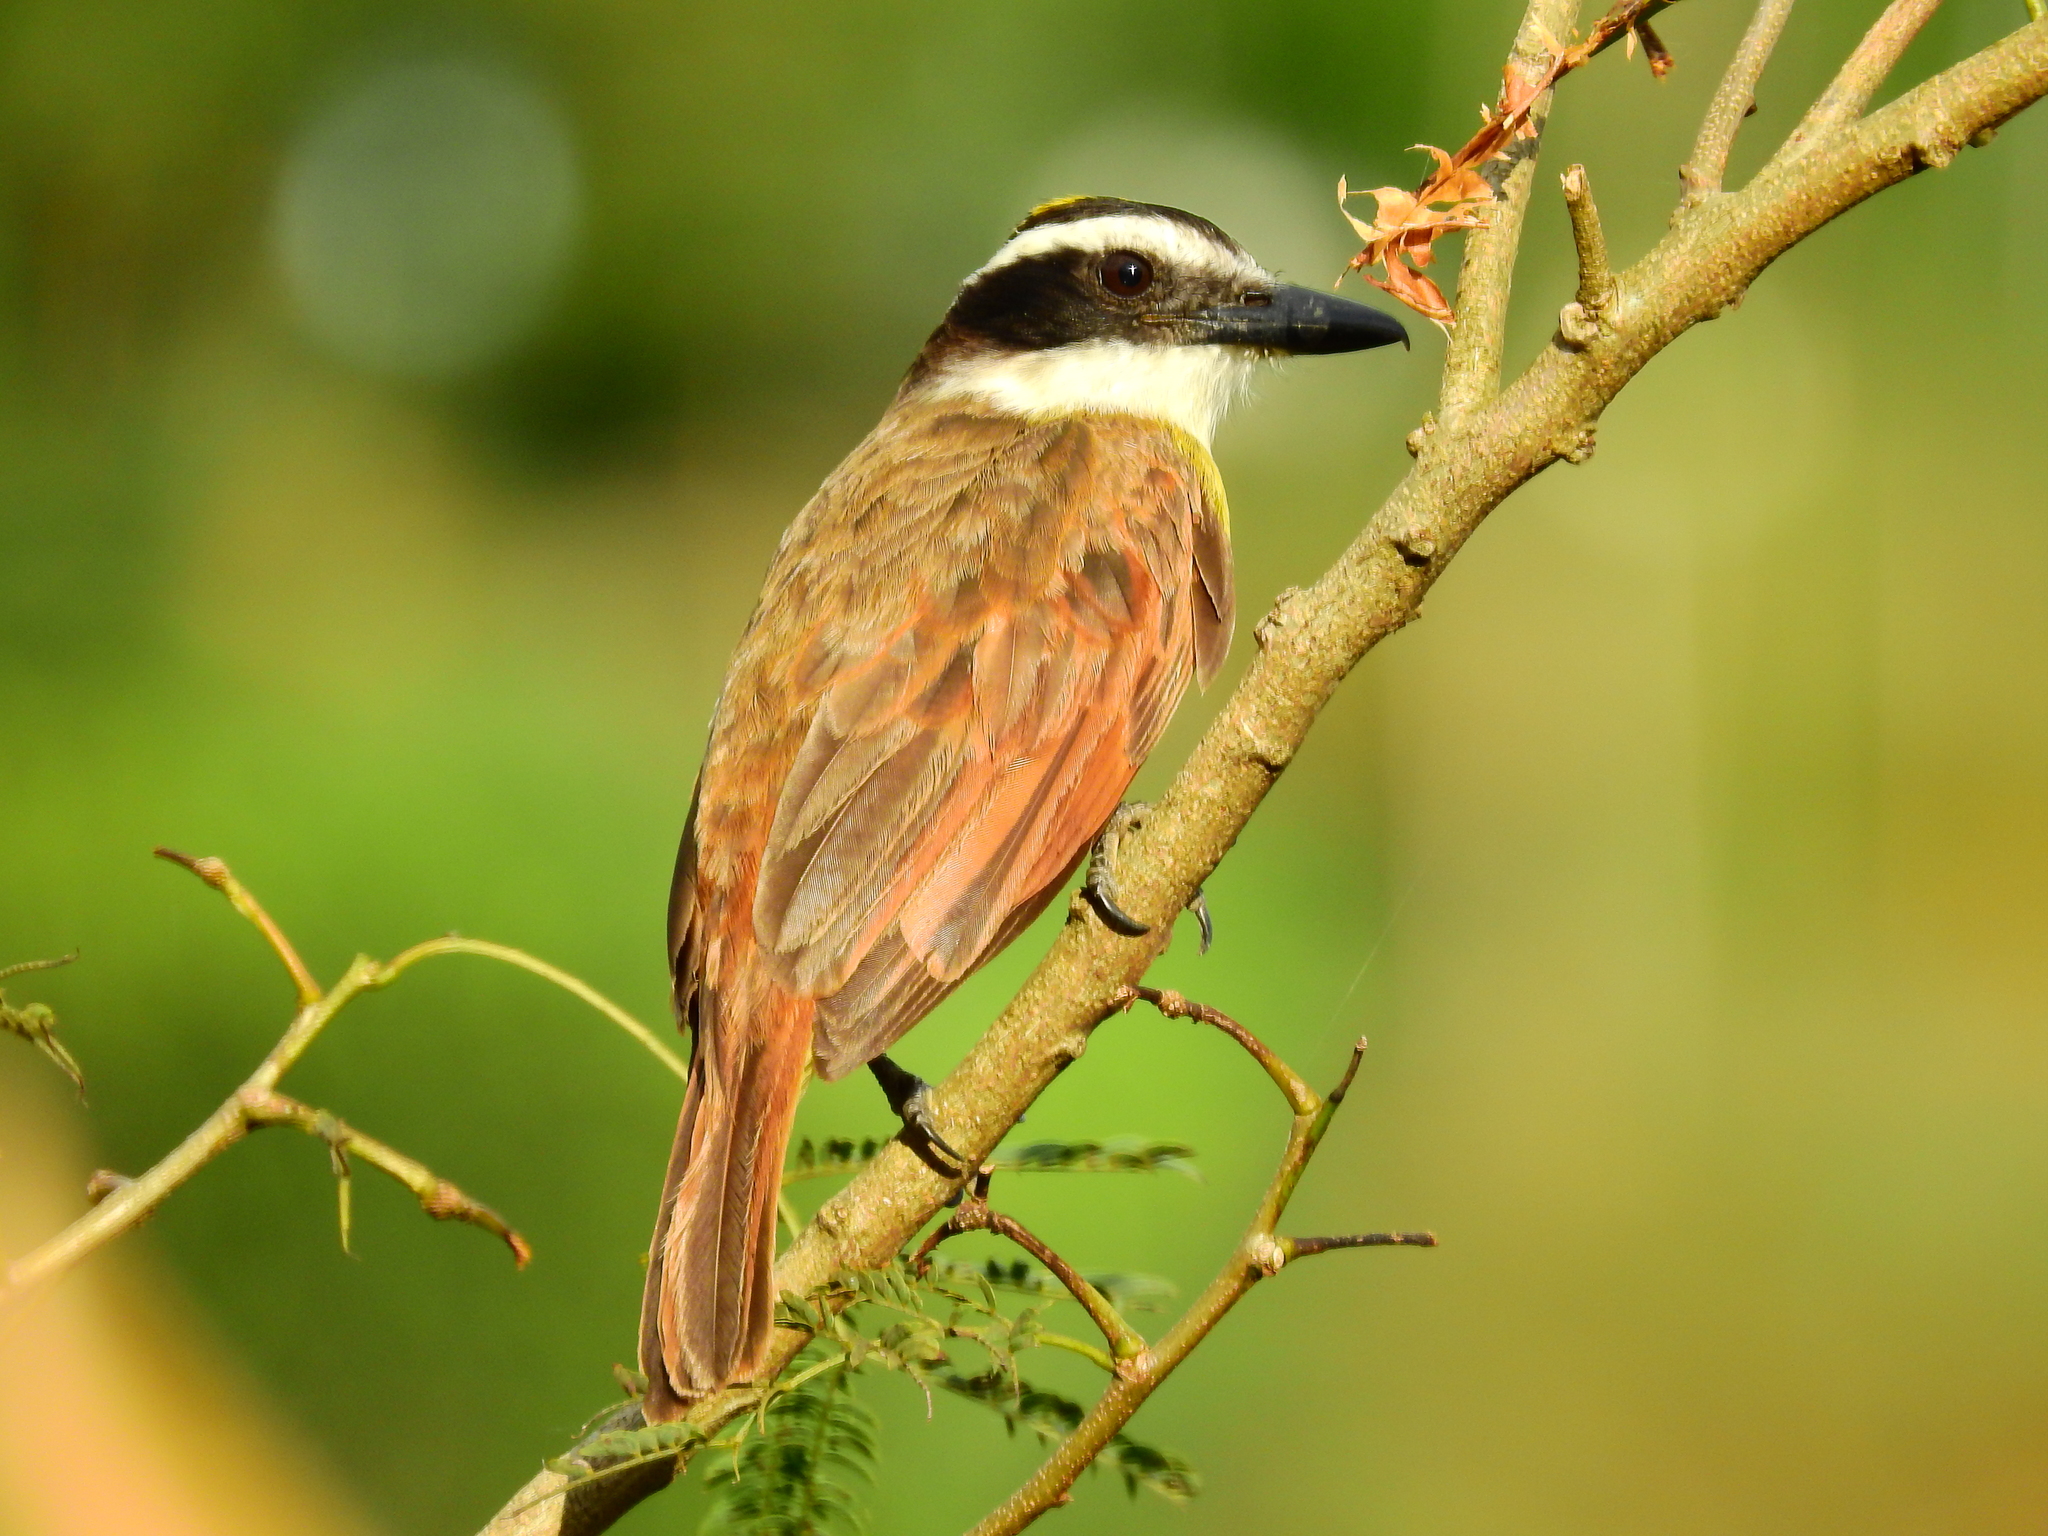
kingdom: Animalia
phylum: Chordata
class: Aves
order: Passeriformes
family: Tyrannidae
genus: Pitangus
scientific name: Pitangus sulphuratus
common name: Great kiskadee
